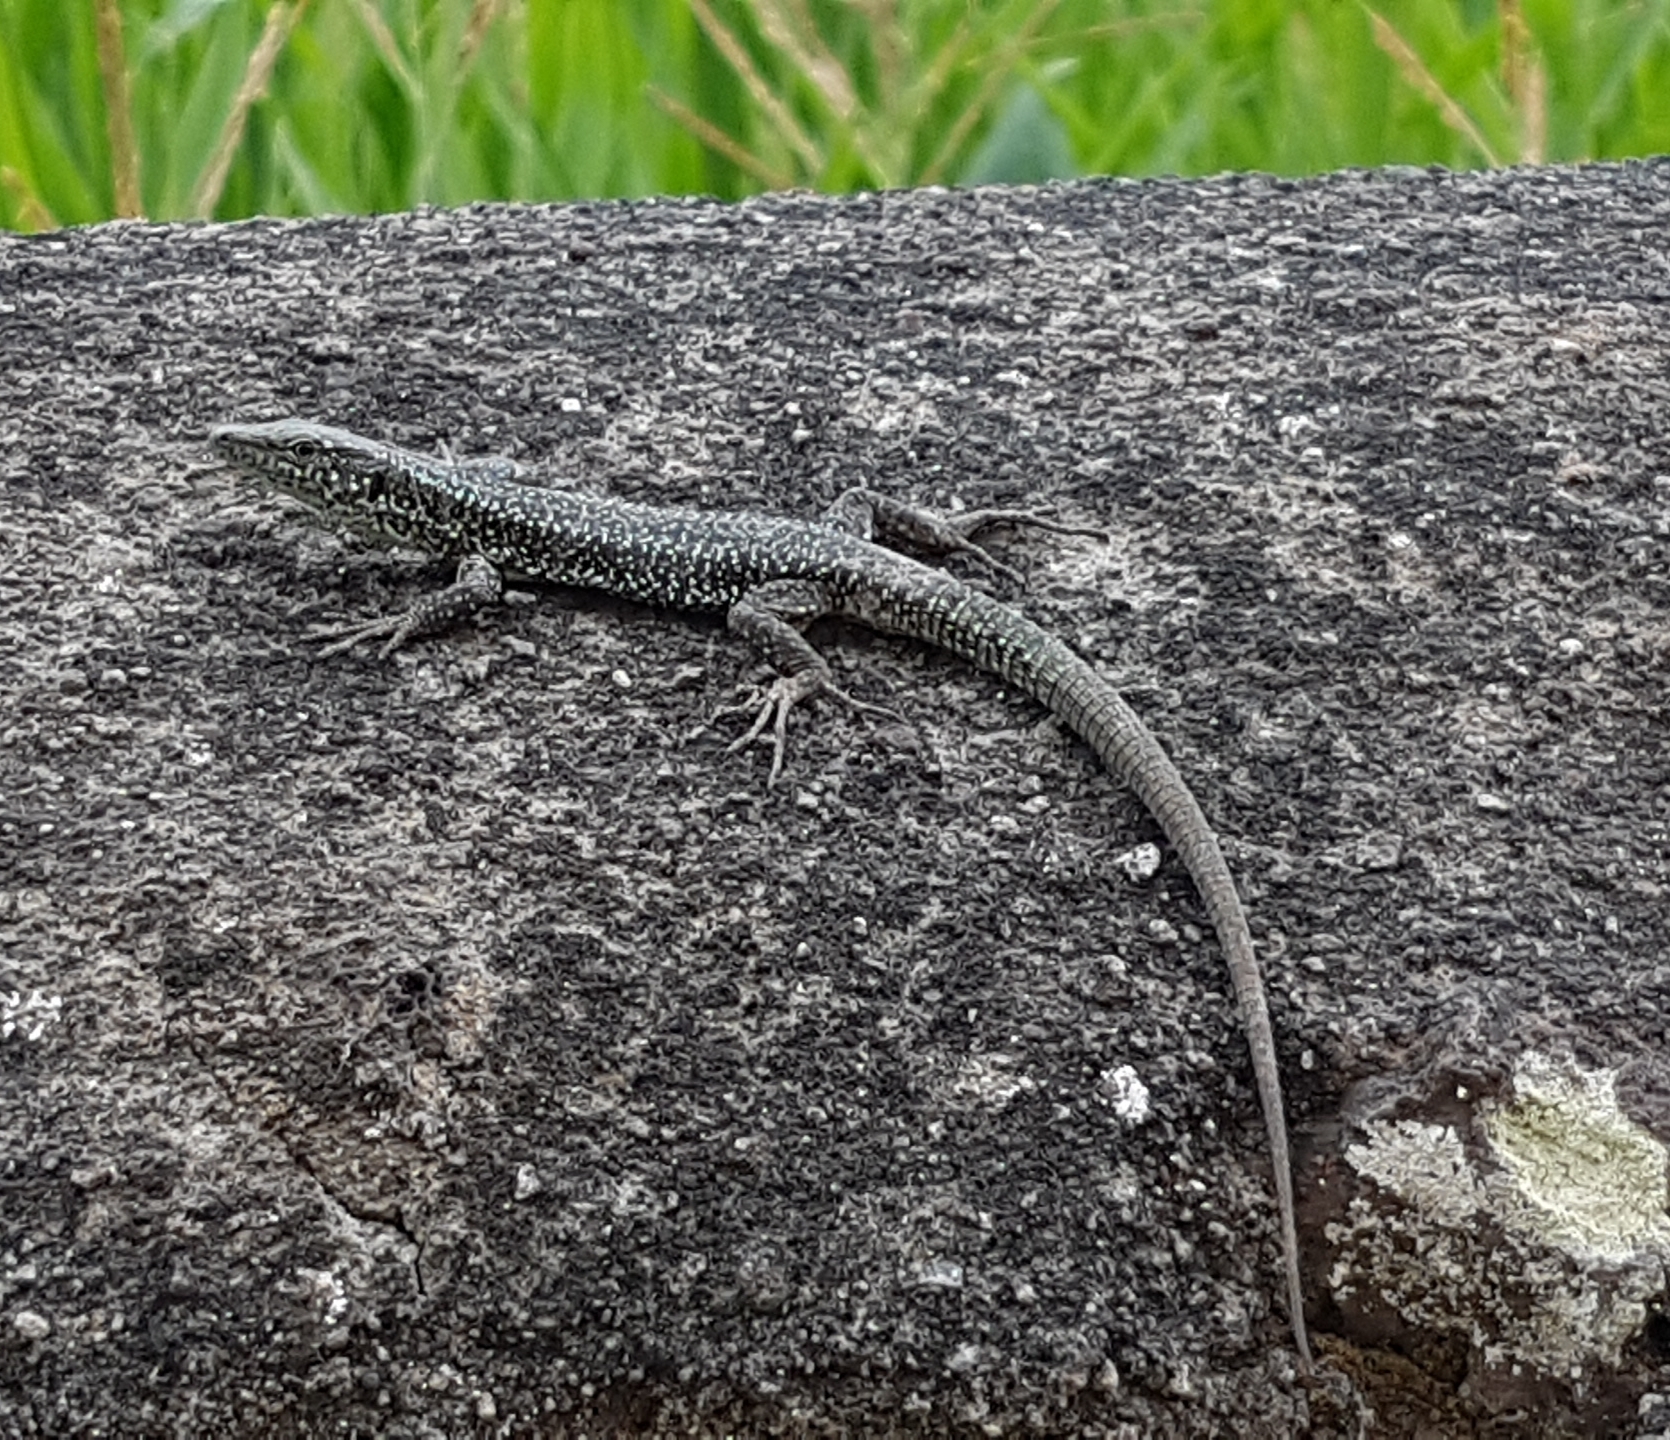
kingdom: Animalia
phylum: Chordata
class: Squamata
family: Lacertidae
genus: Teira
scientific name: Teira dugesii
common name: Madeira lizard
